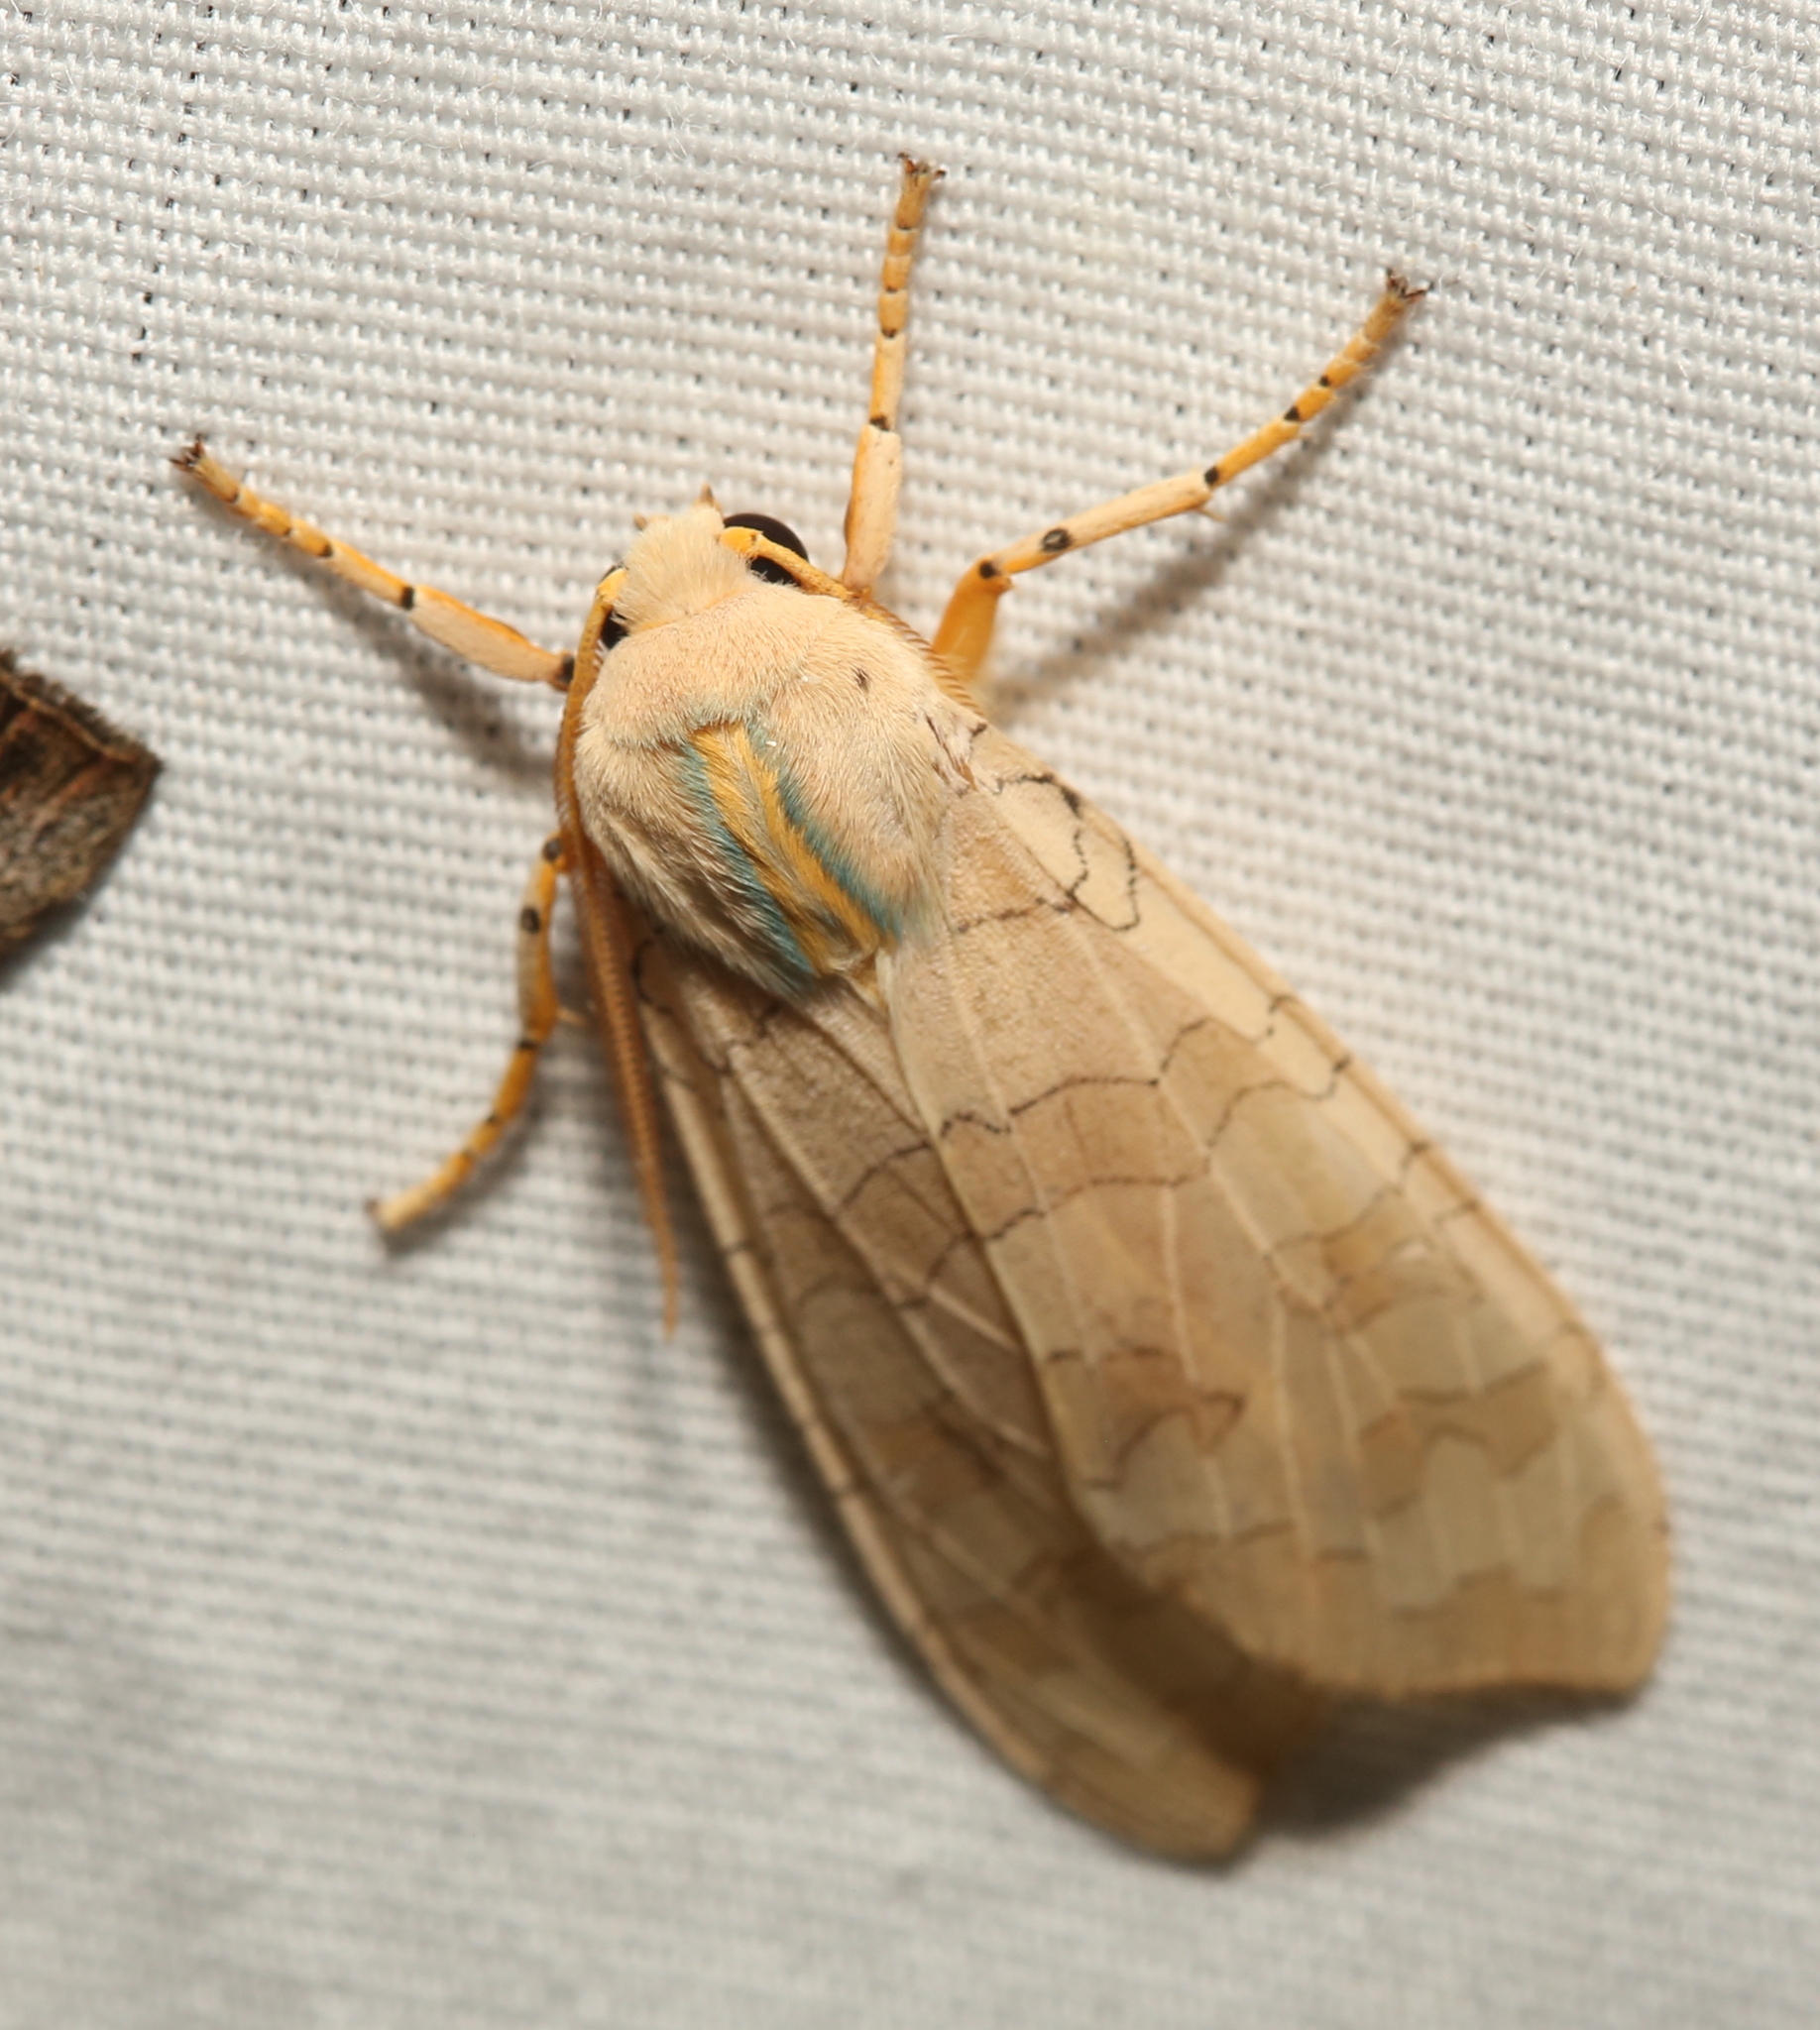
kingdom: Animalia
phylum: Arthropoda
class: Insecta
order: Lepidoptera
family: Erebidae
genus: Halysidota
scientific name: Halysidota
